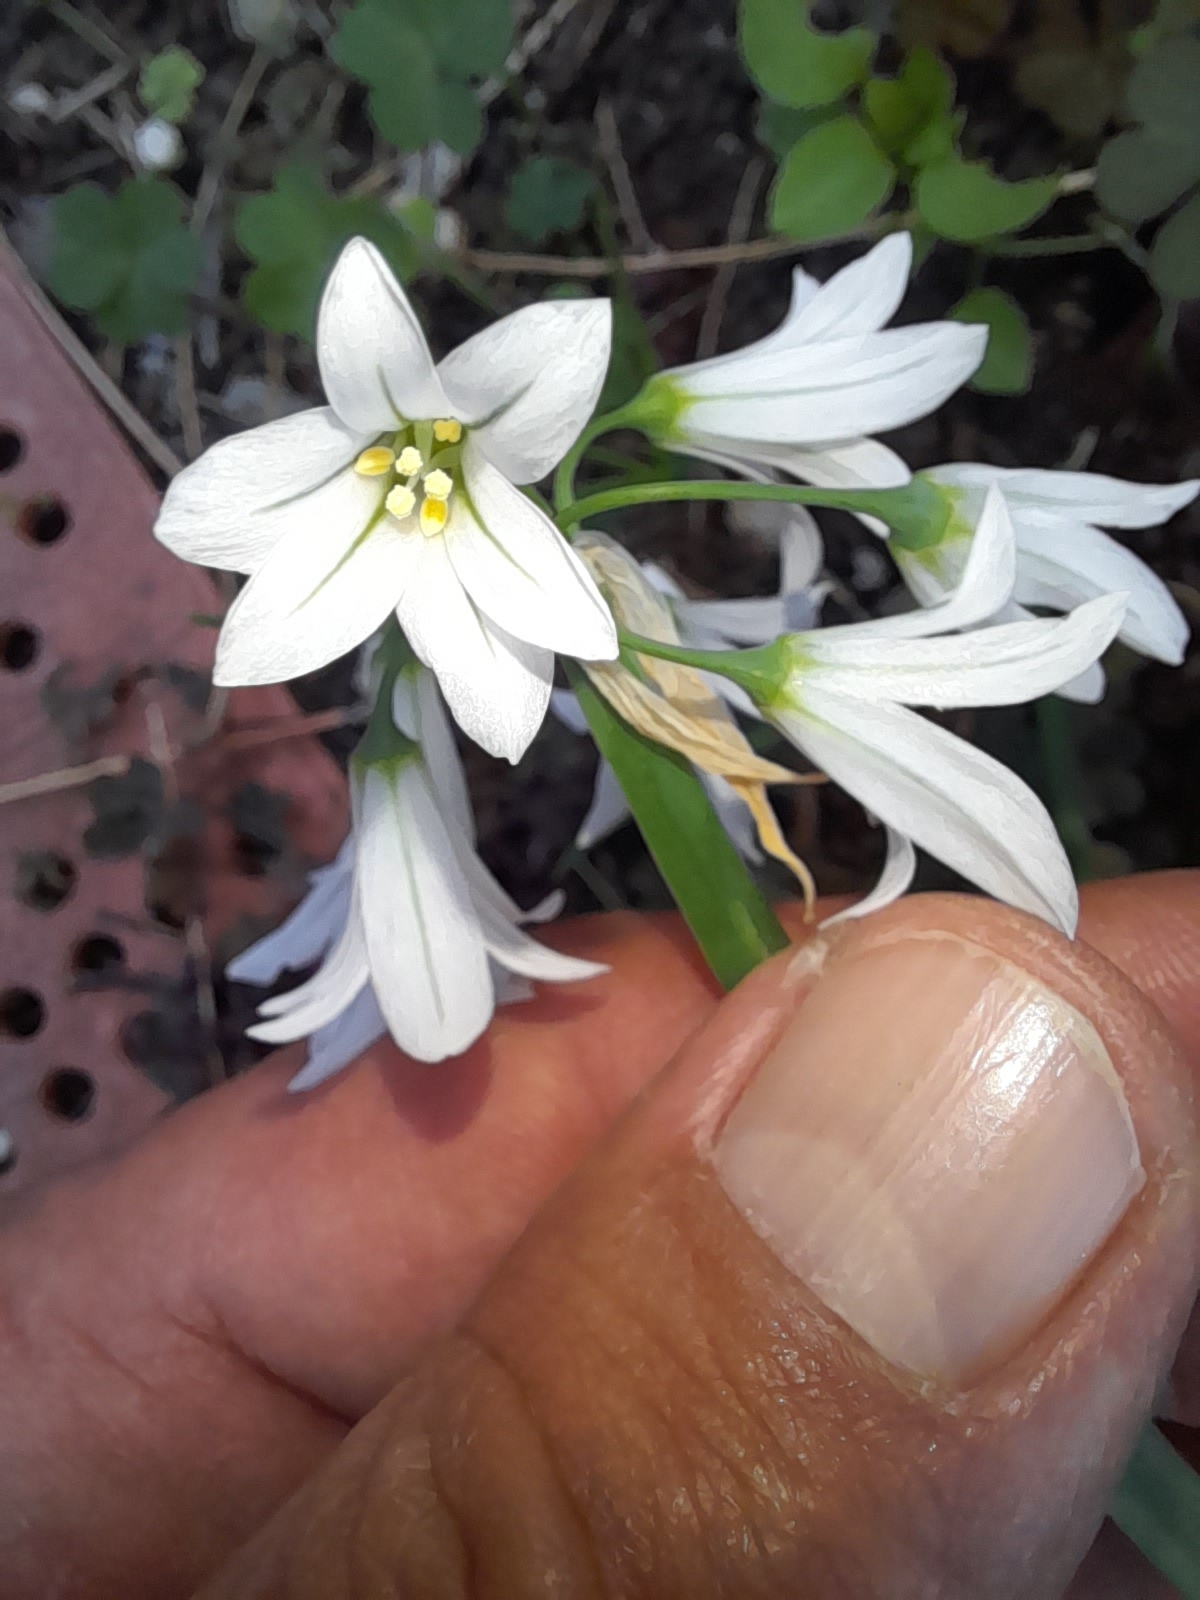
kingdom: Plantae
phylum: Tracheophyta
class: Liliopsida
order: Asparagales
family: Amaryllidaceae
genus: Allium
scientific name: Allium triquetrum
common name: Three-cornered garlic
